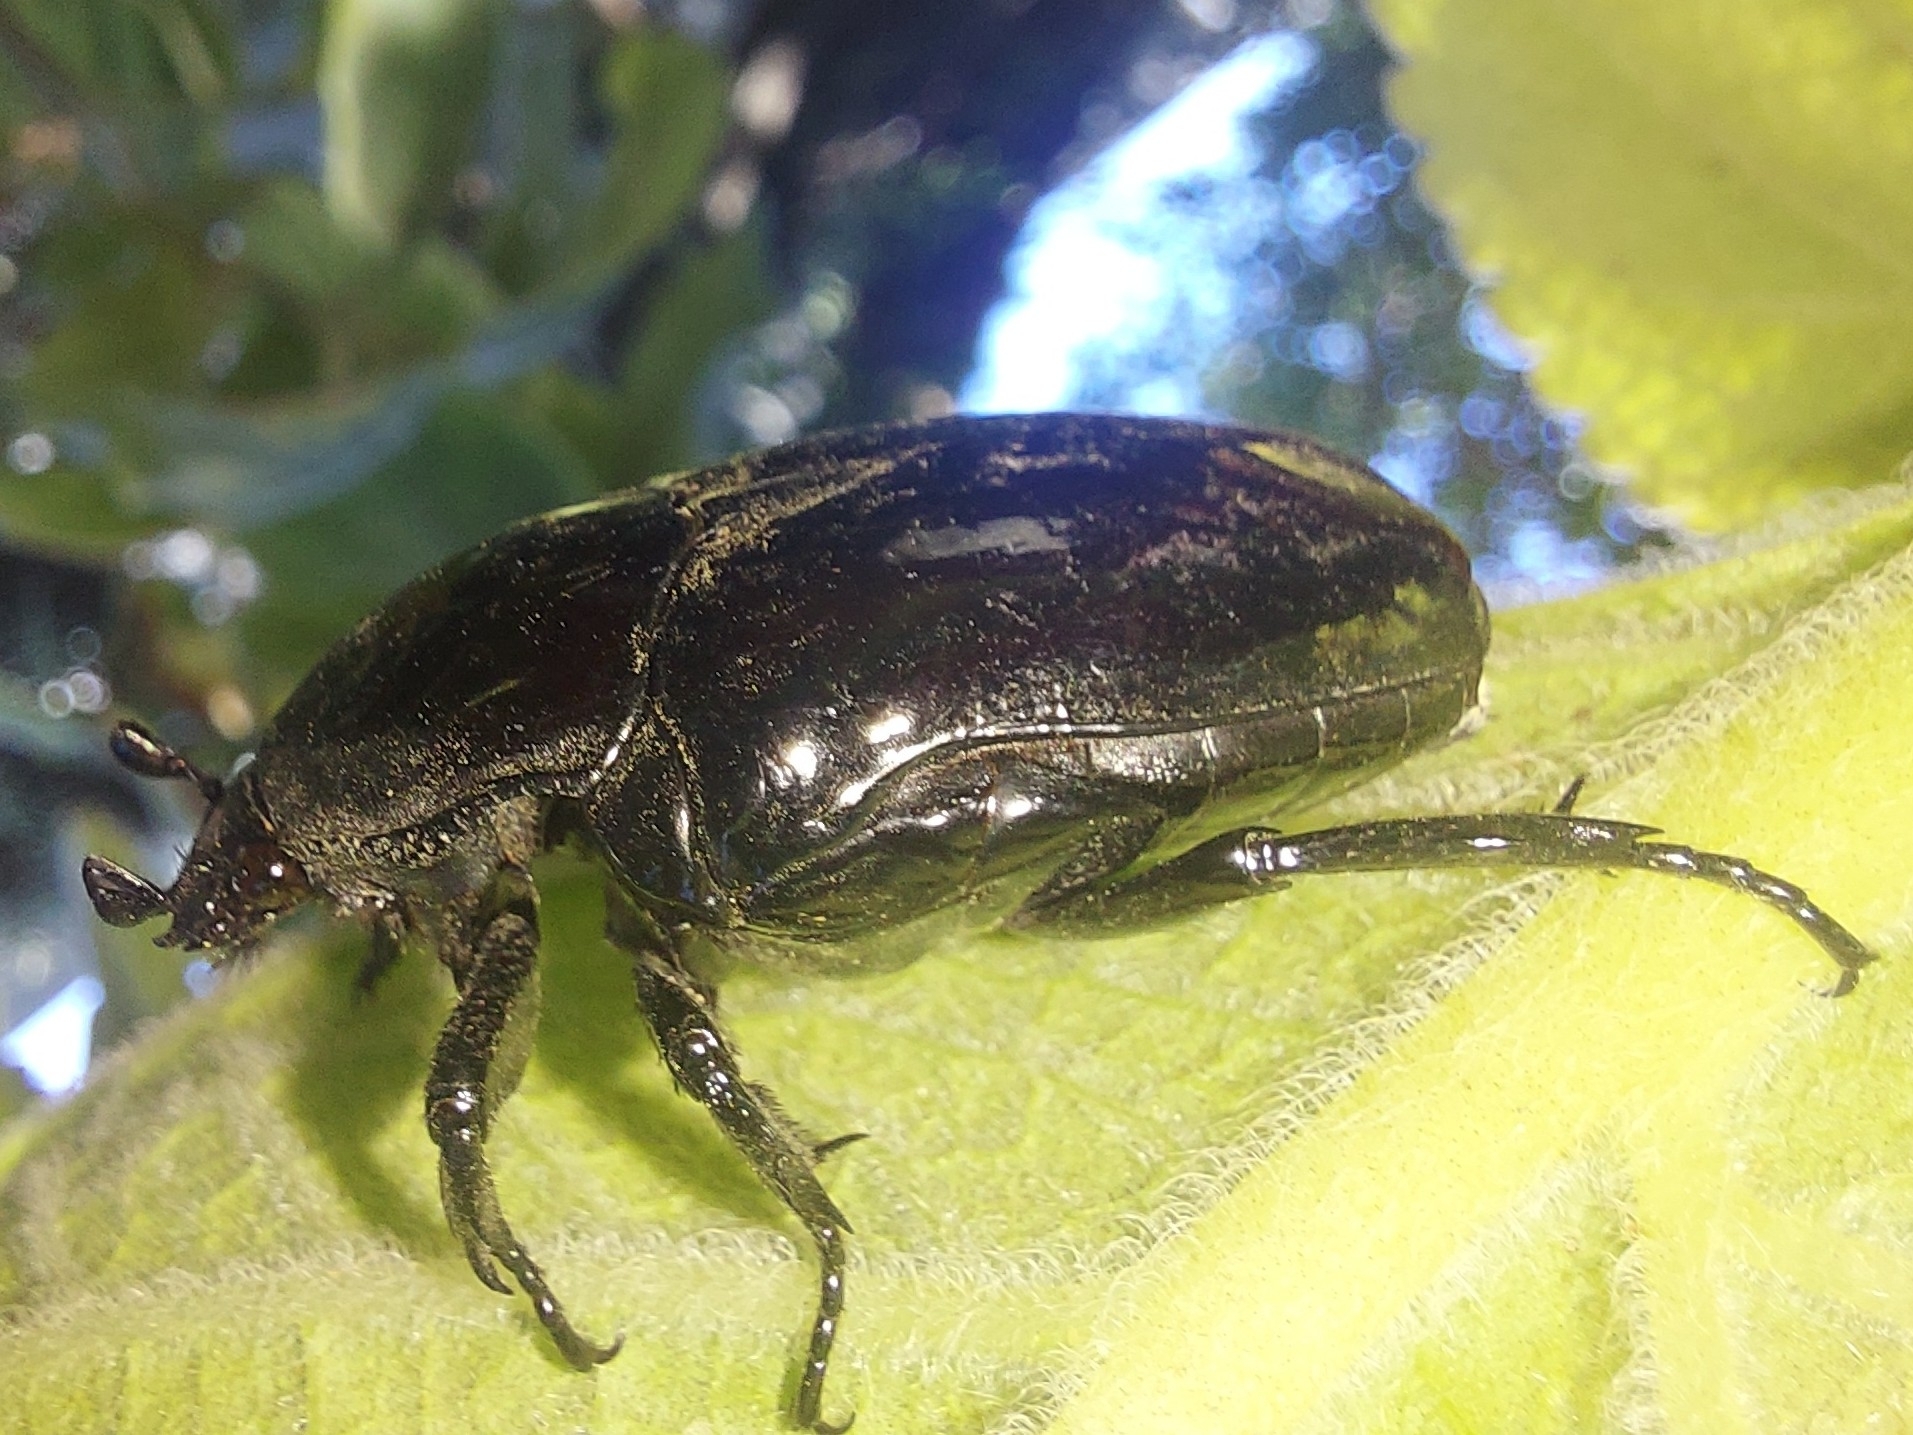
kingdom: Animalia
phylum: Arthropoda
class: Insecta
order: Coleoptera
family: Scarabaeidae
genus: Diplognatha
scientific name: Diplognatha gagates
